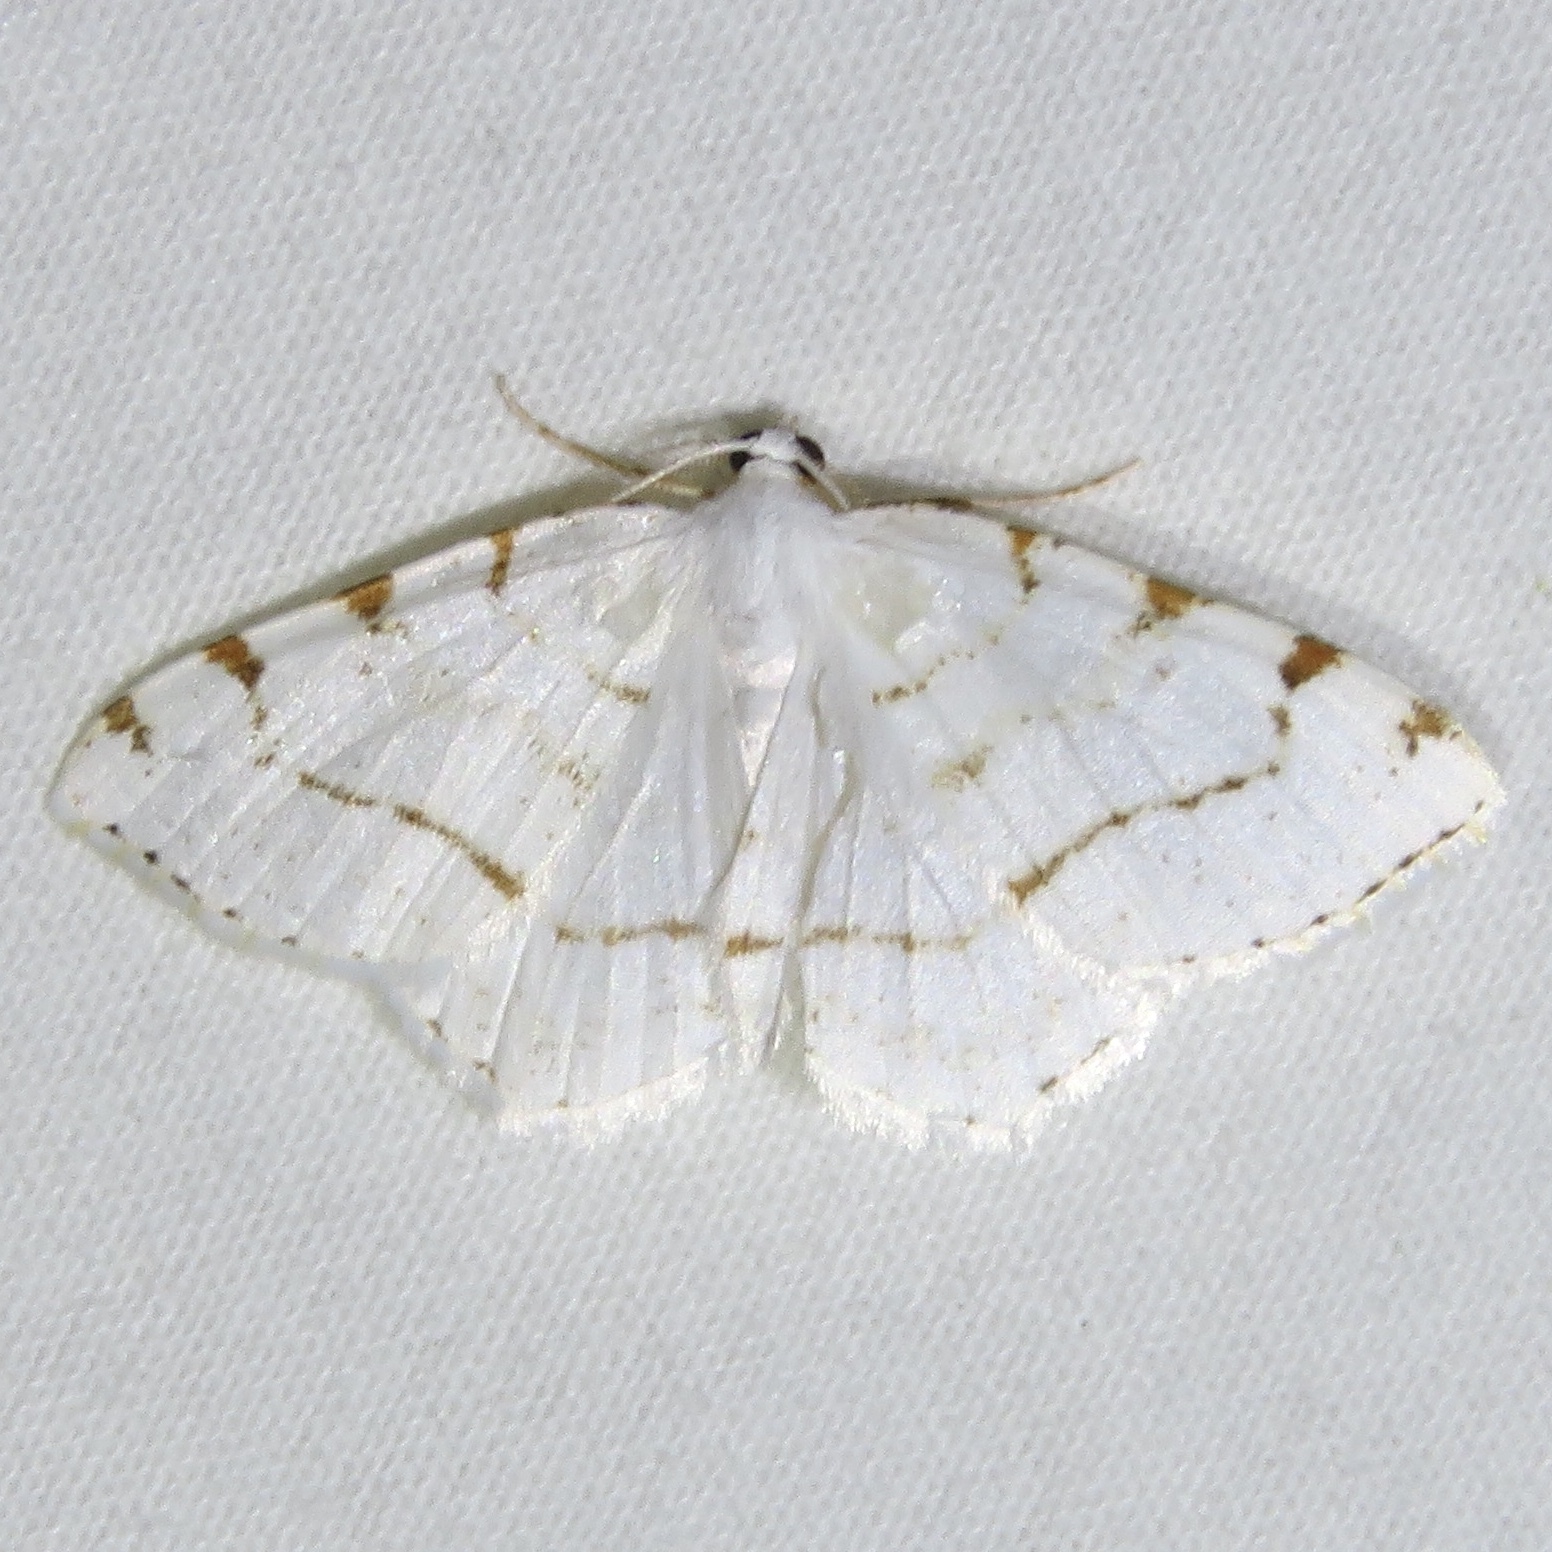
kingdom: Animalia
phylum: Arthropoda
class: Insecta
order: Lepidoptera
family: Geometridae
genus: Macaria
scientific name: Macaria pustularia
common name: Lesser maple spanworm moth
